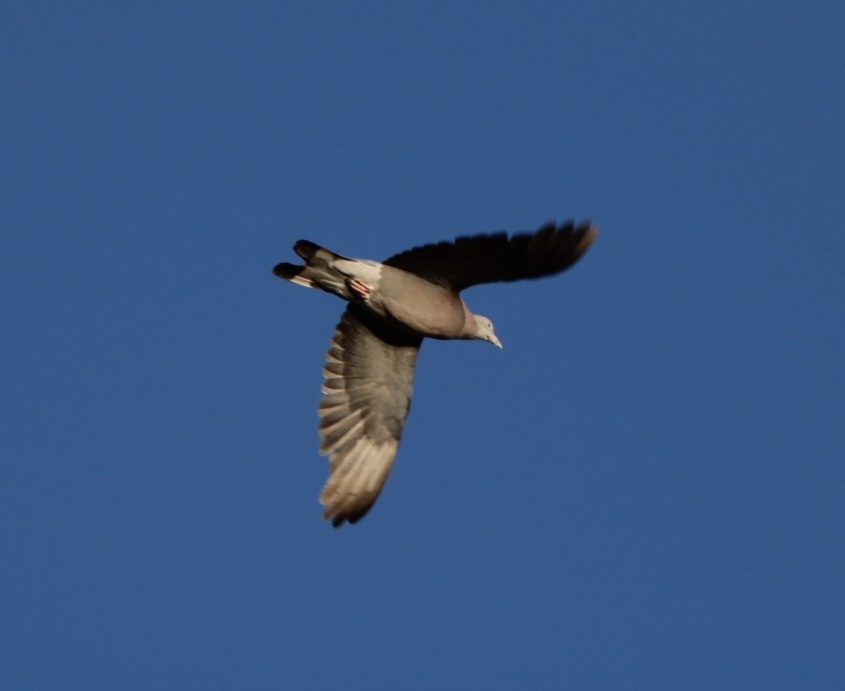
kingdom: Animalia
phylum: Chordata
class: Aves
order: Columbiformes
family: Columbidae
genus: Columba
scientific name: Columba palumbus
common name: Common wood pigeon
